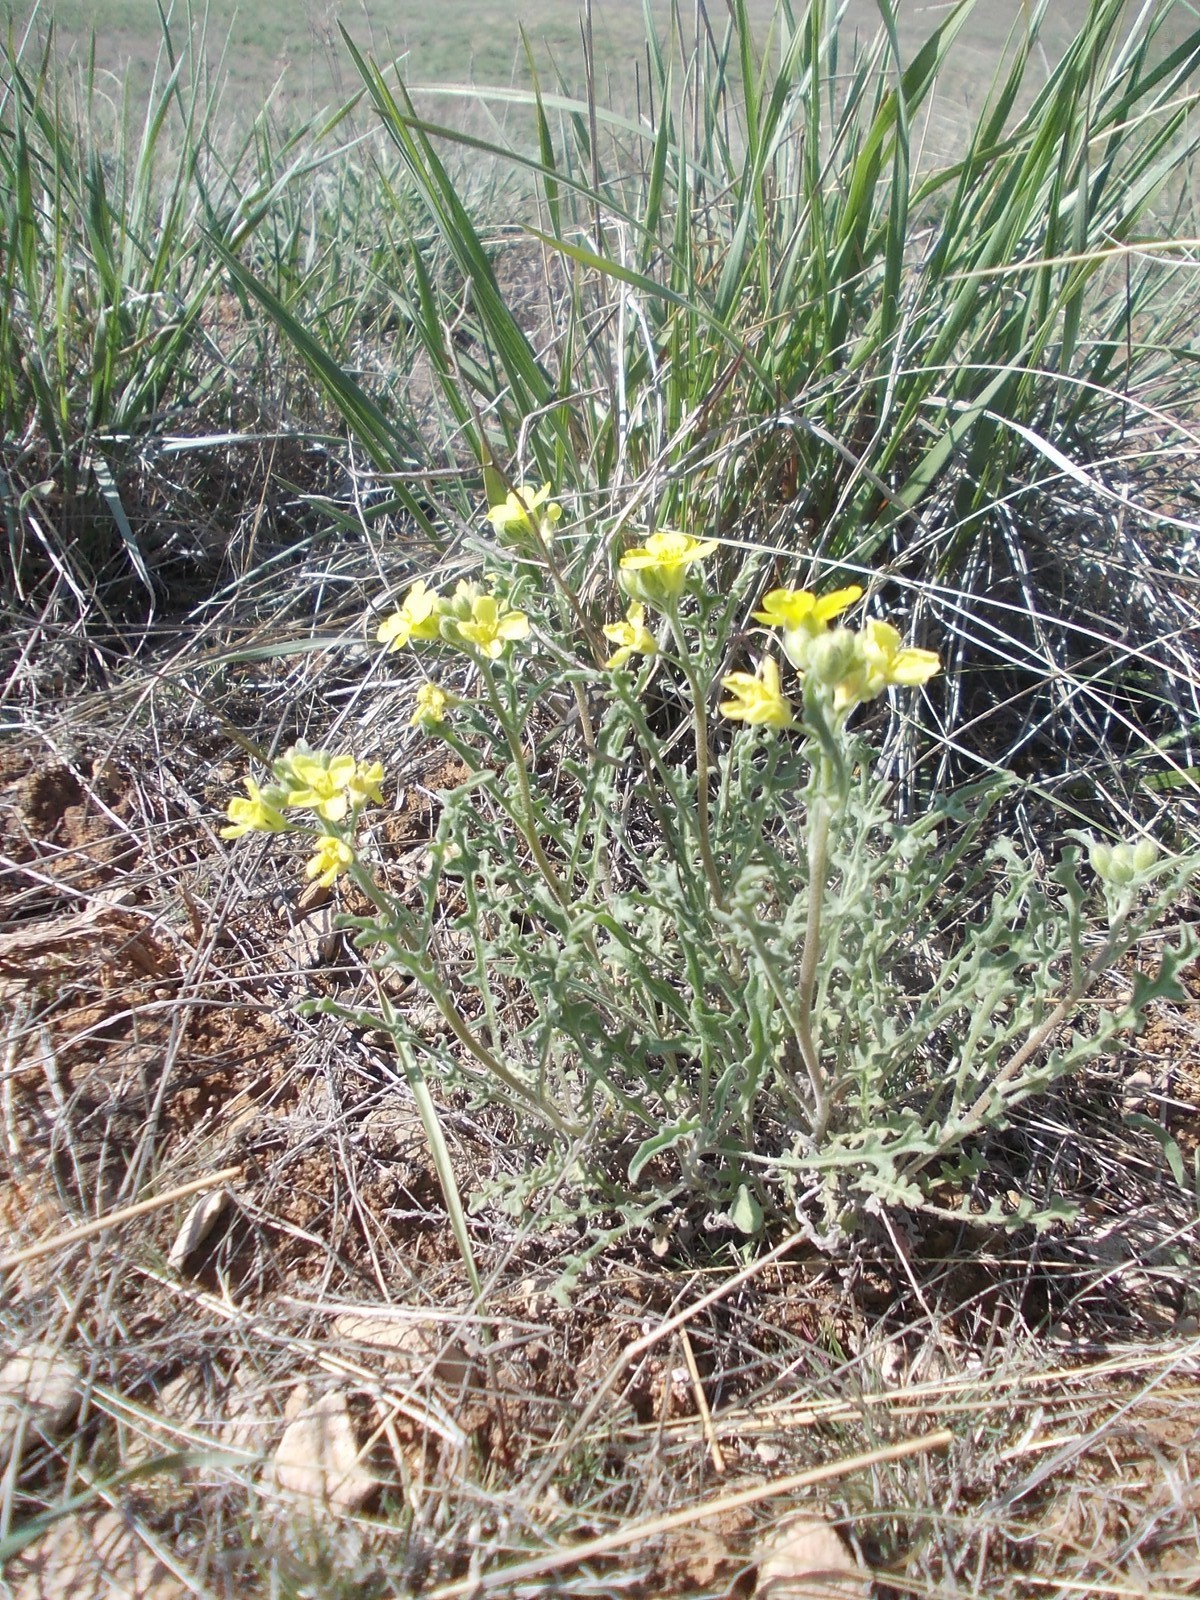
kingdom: Plantae
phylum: Tracheophyta
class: Magnoliopsida
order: Brassicales
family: Brassicaceae
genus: Sterigmostemum
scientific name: Sterigmostemum caspicum
